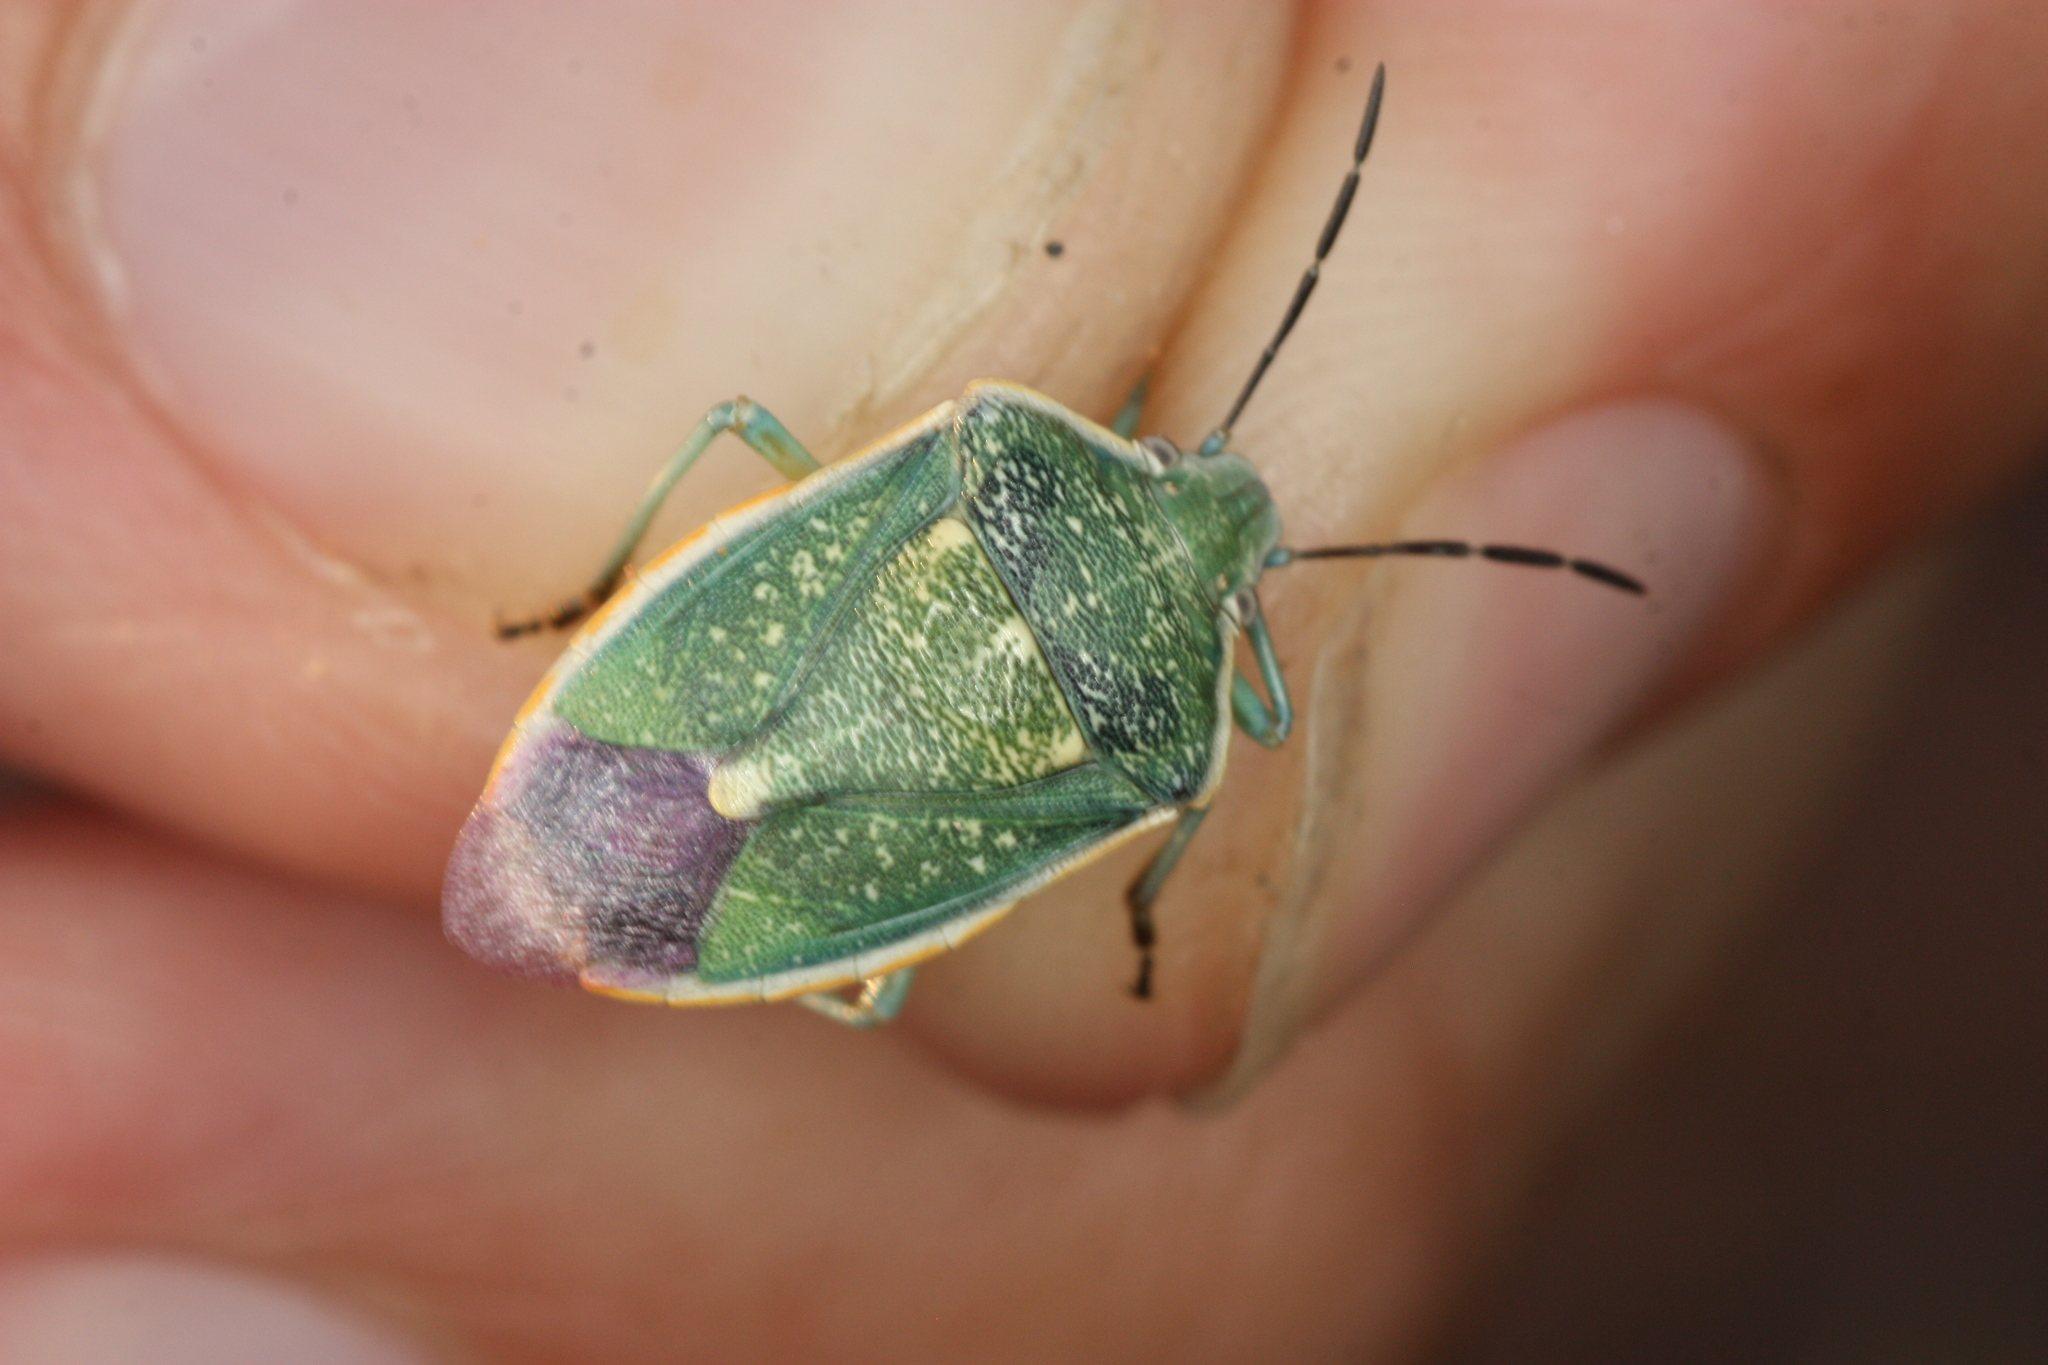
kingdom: Animalia
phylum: Arthropoda
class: Insecta
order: Hemiptera
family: Pentatomidae
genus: Chlorochroa
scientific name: Chlorochroa sayi
